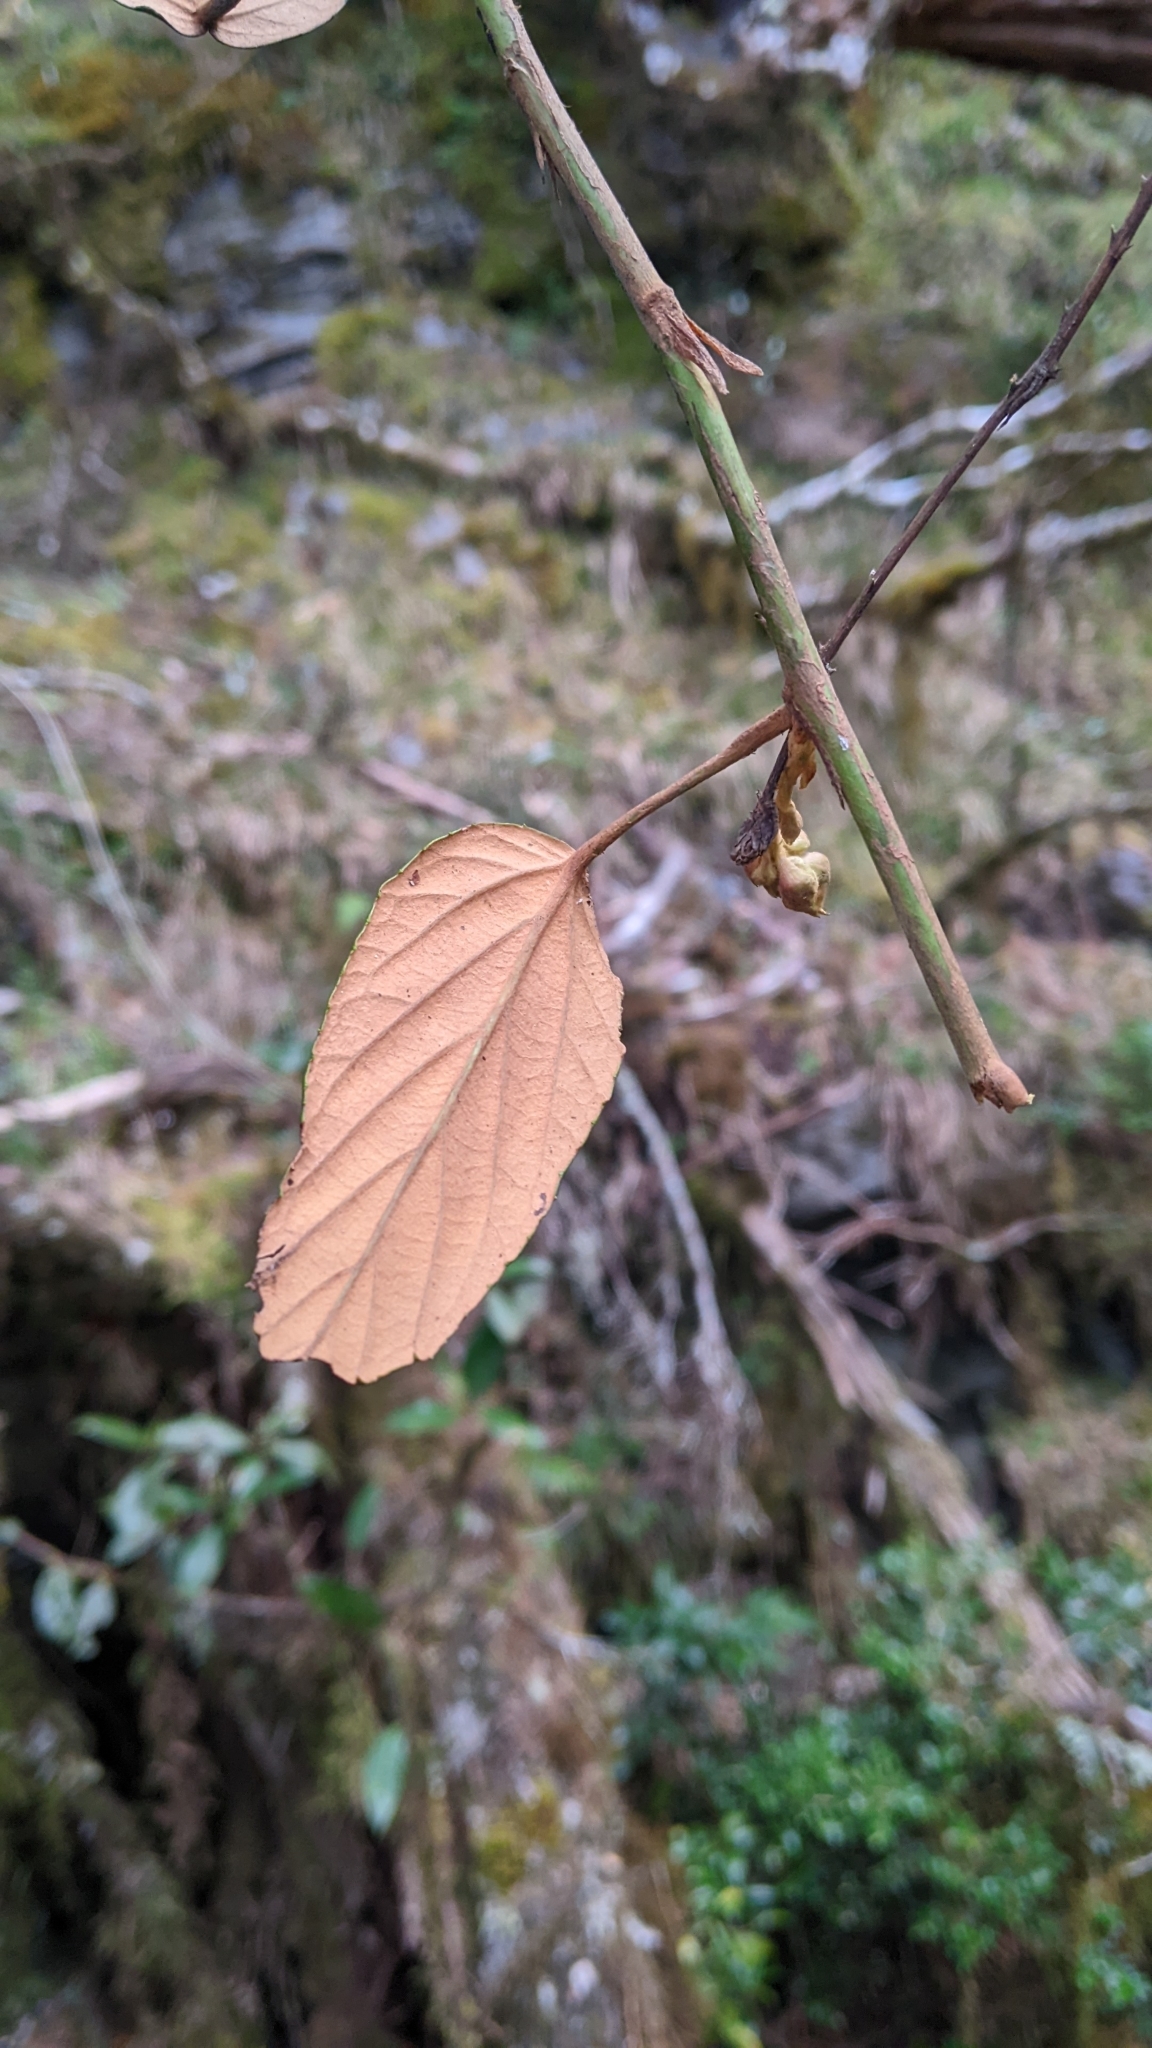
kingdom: Plantae
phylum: Tracheophyta
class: Magnoliopsida
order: Rosales
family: Rosaceae
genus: Rubus
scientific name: Rubus liui
